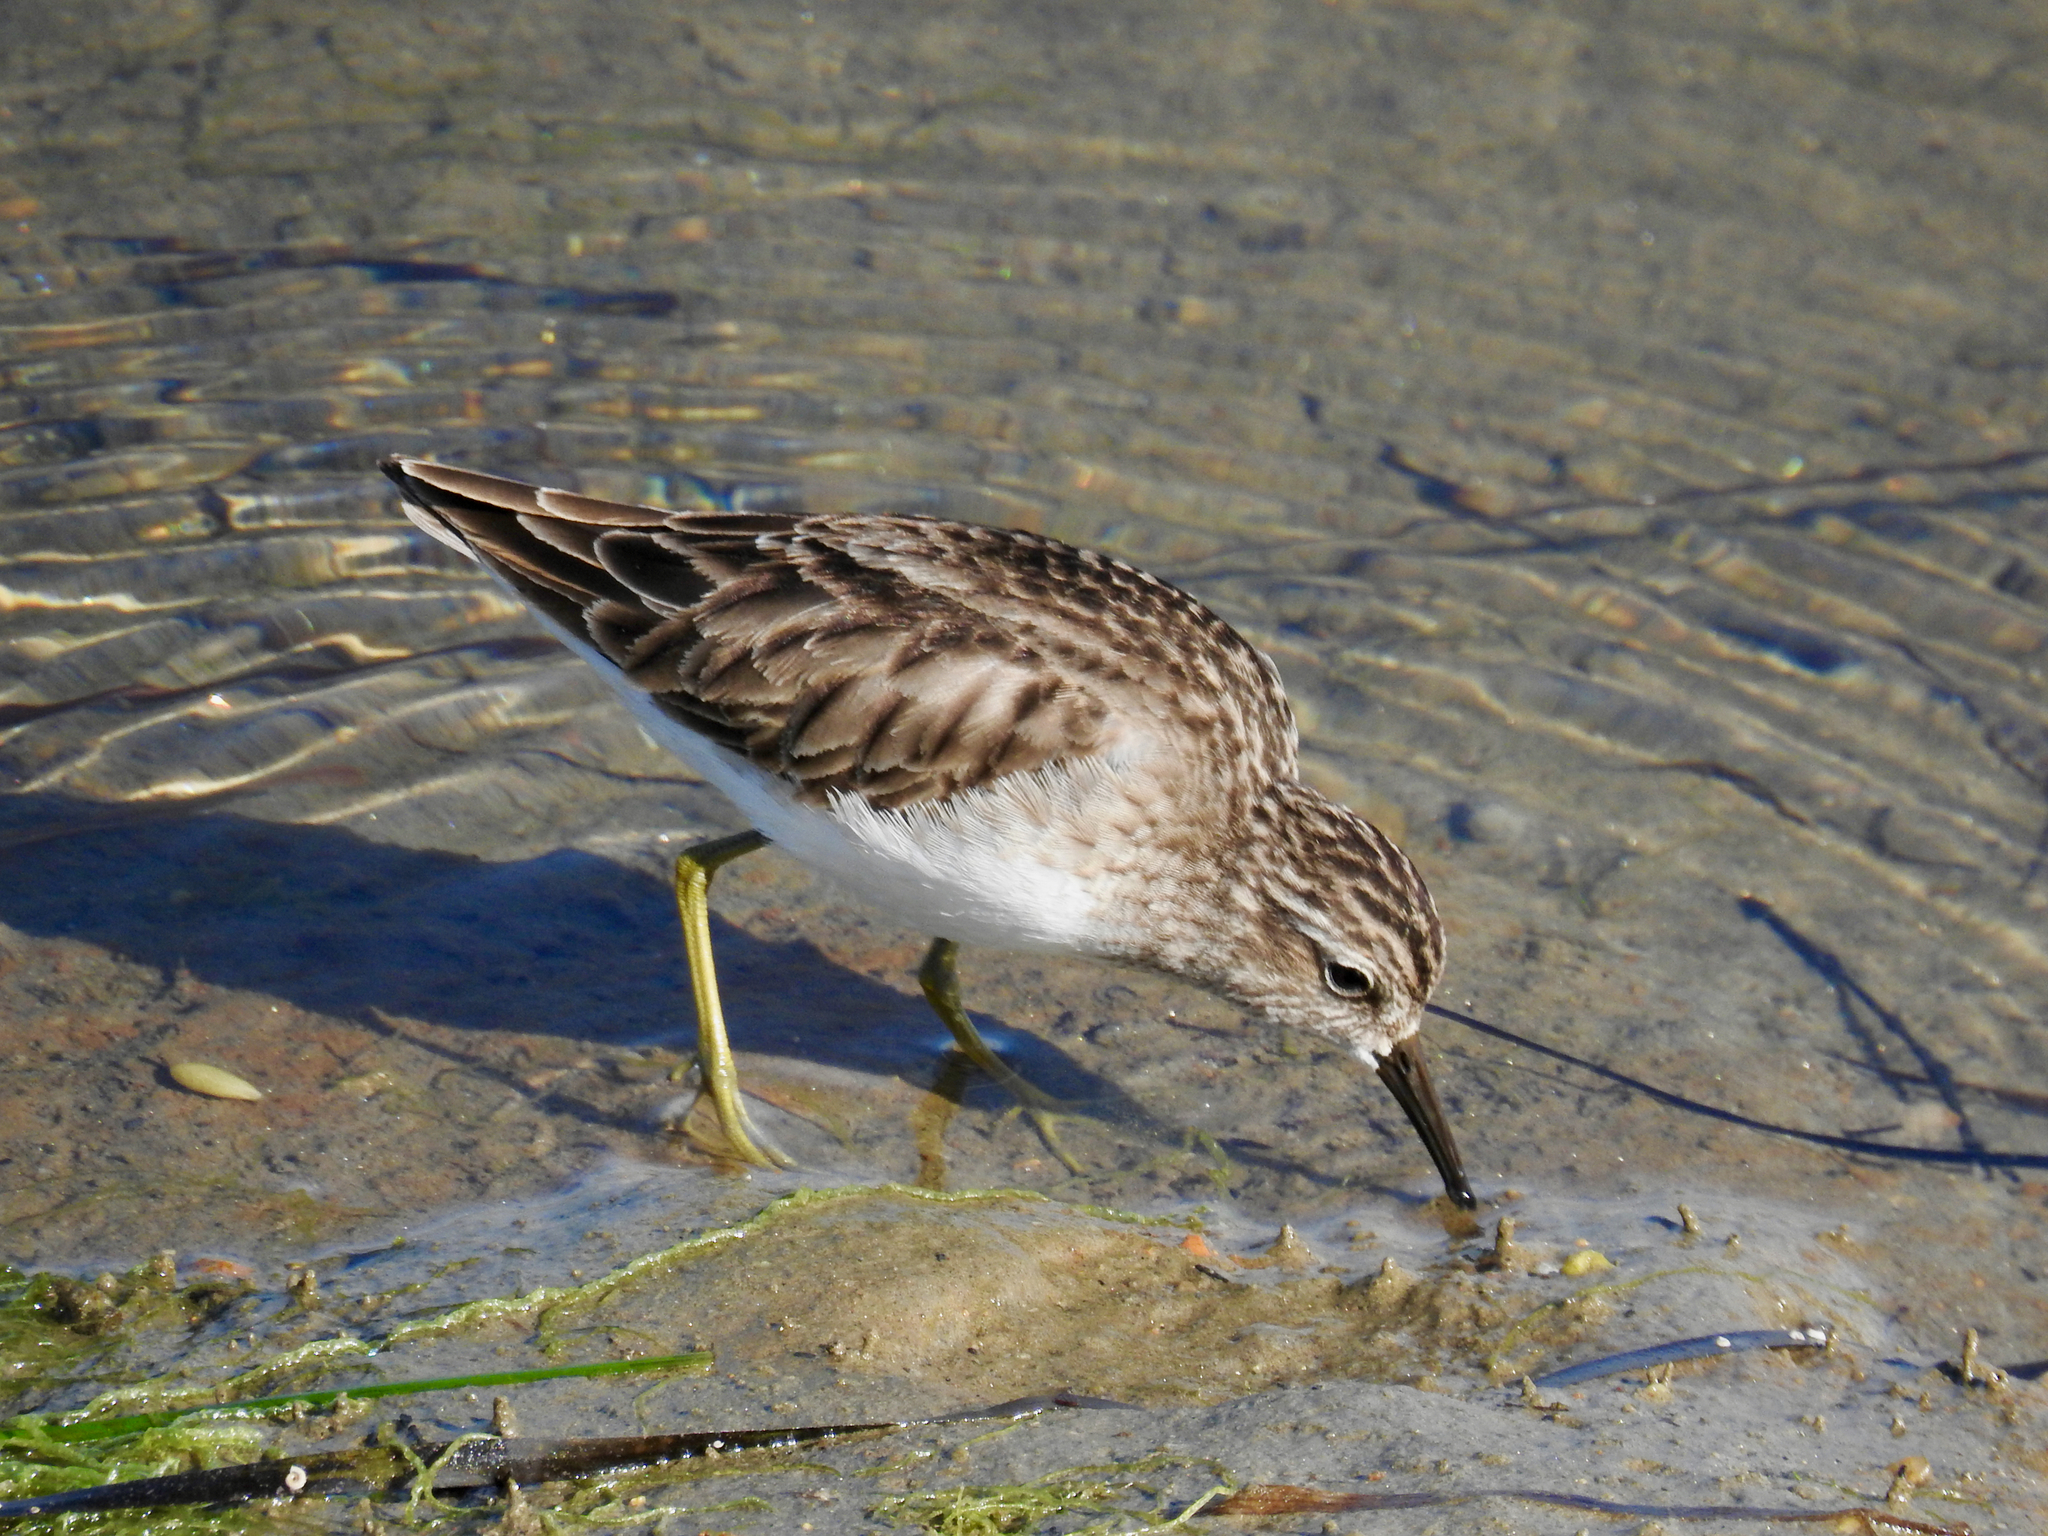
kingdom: Animalia
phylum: Chordata
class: Aves
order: Charadriiformes
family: Scolopacidae
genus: Calidris
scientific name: Calidris minutilla
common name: Least sandpiper
